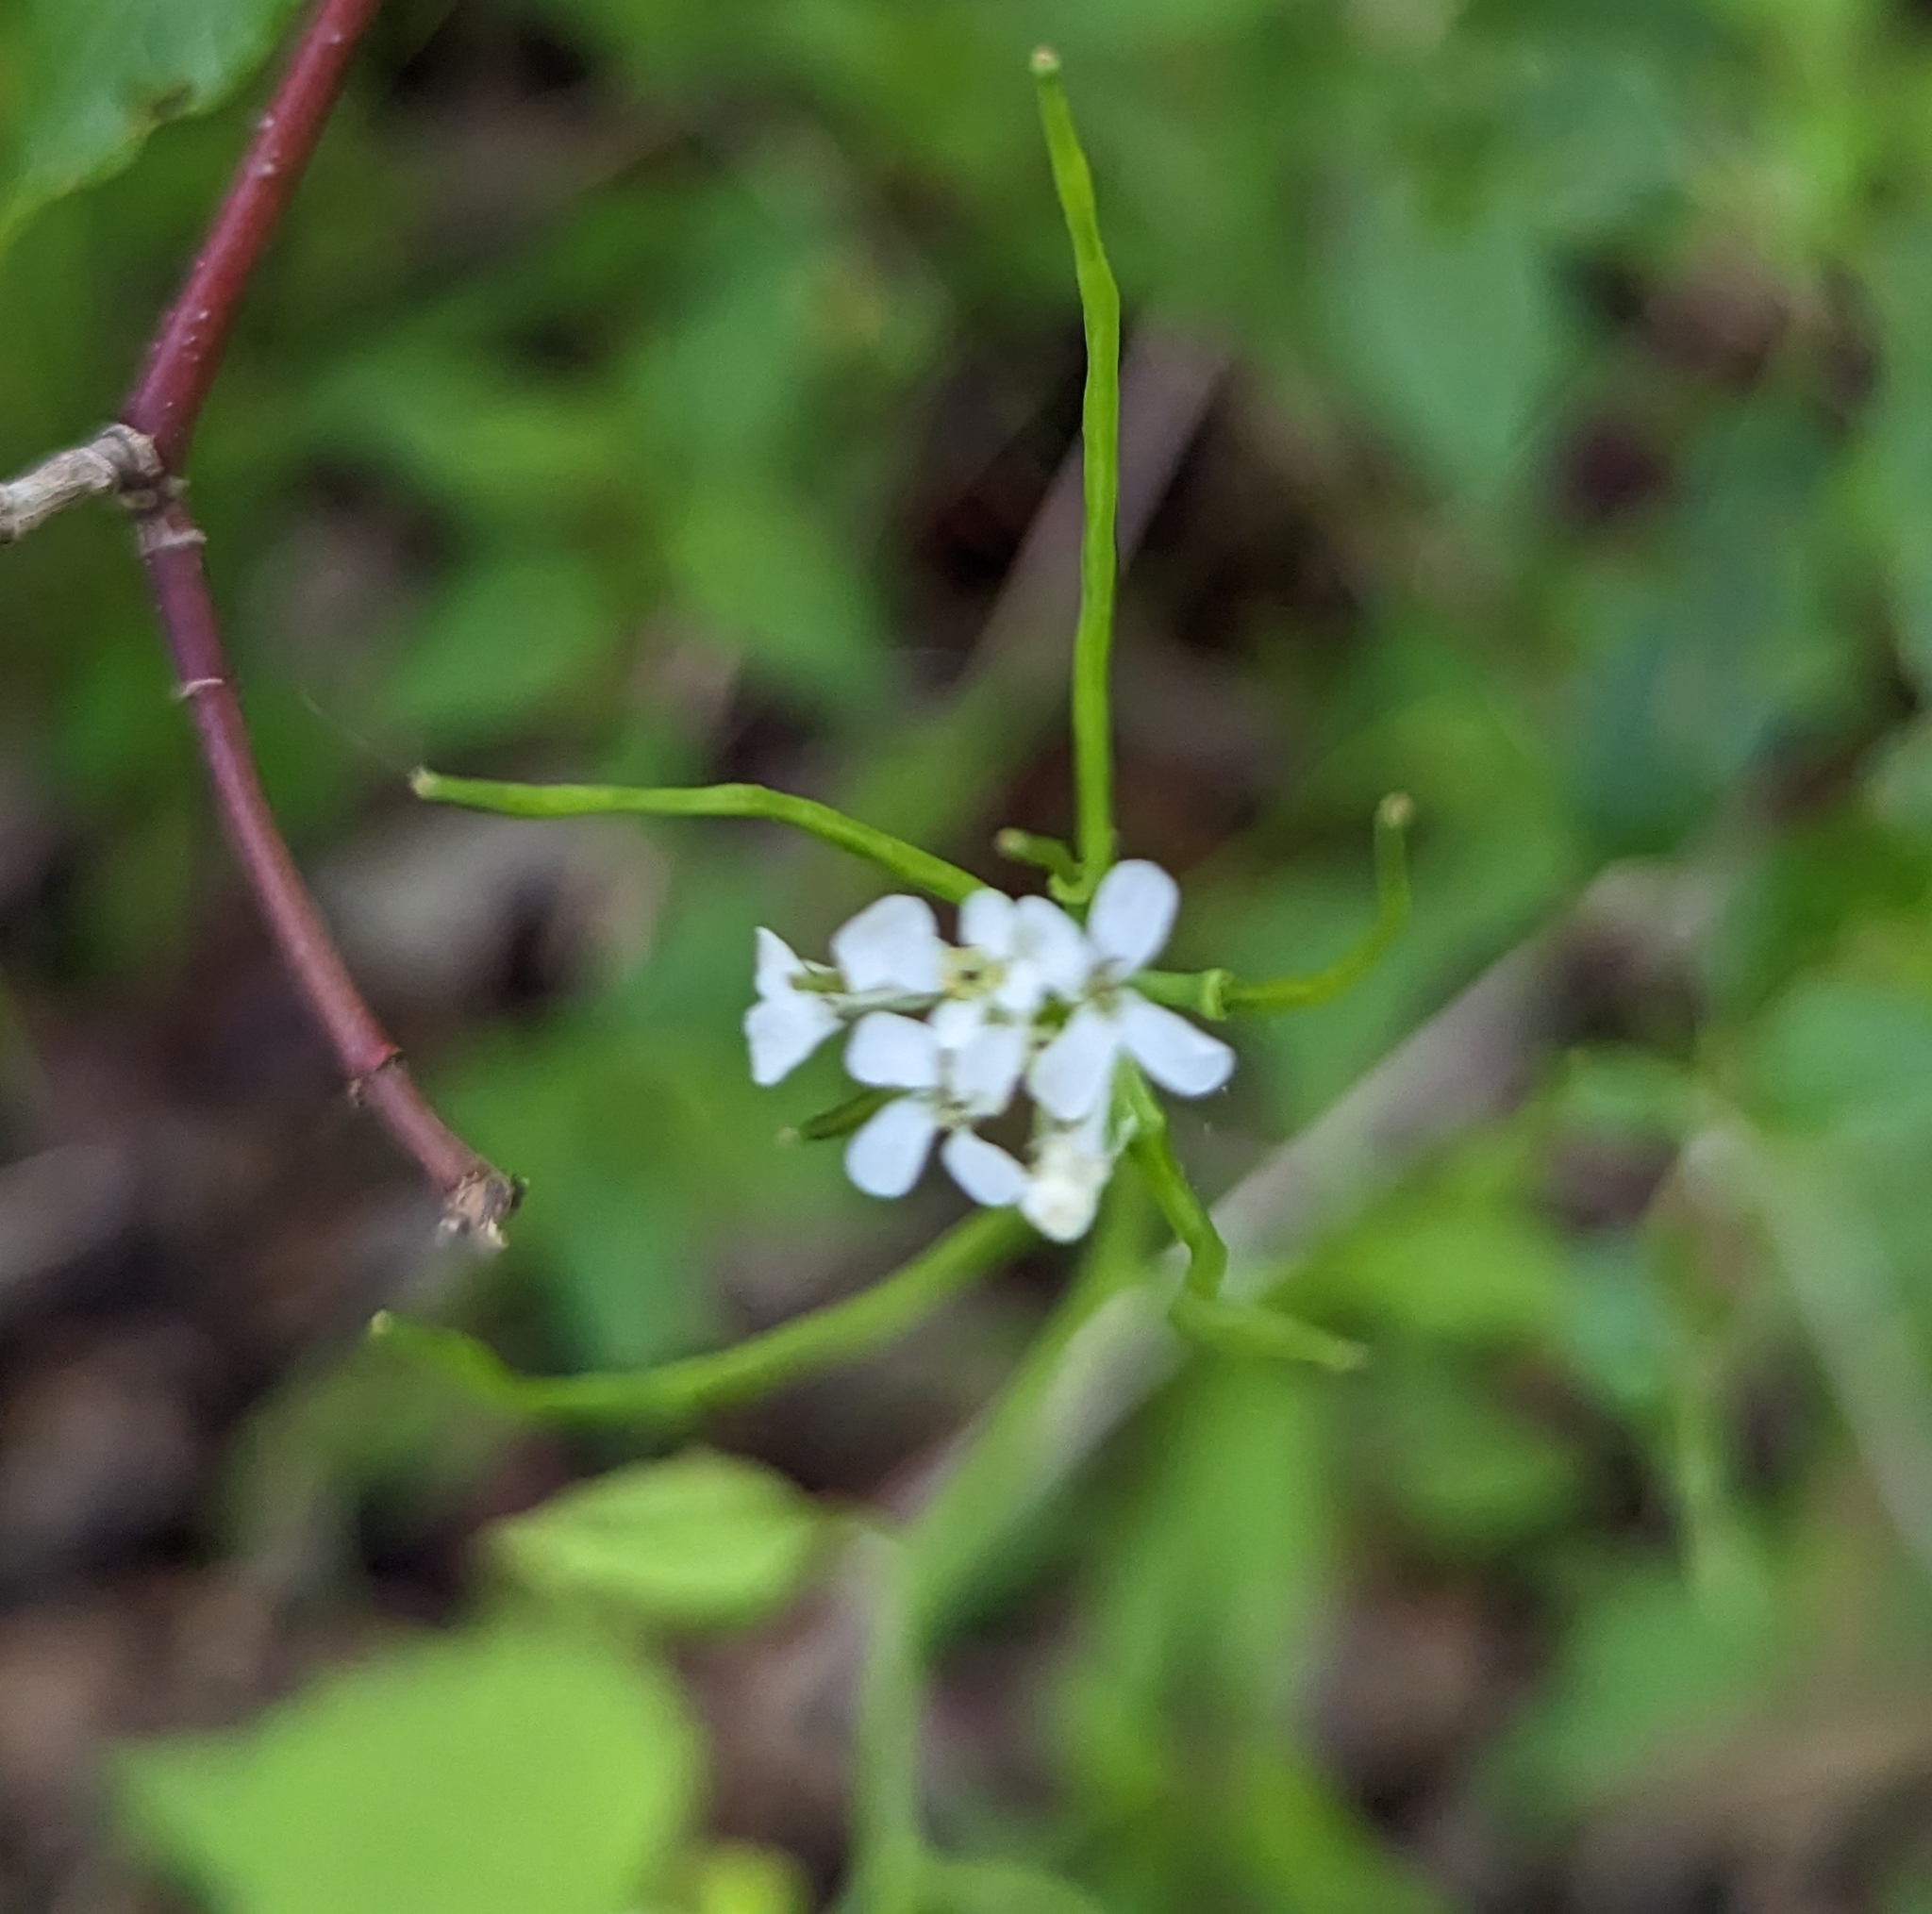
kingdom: Plantae
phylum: Tracheophyta
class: Magnoliopsida
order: Brassicales
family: Brassicaceae
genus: Alliaria
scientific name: Alliaria petiolata
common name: Garlic mustard
